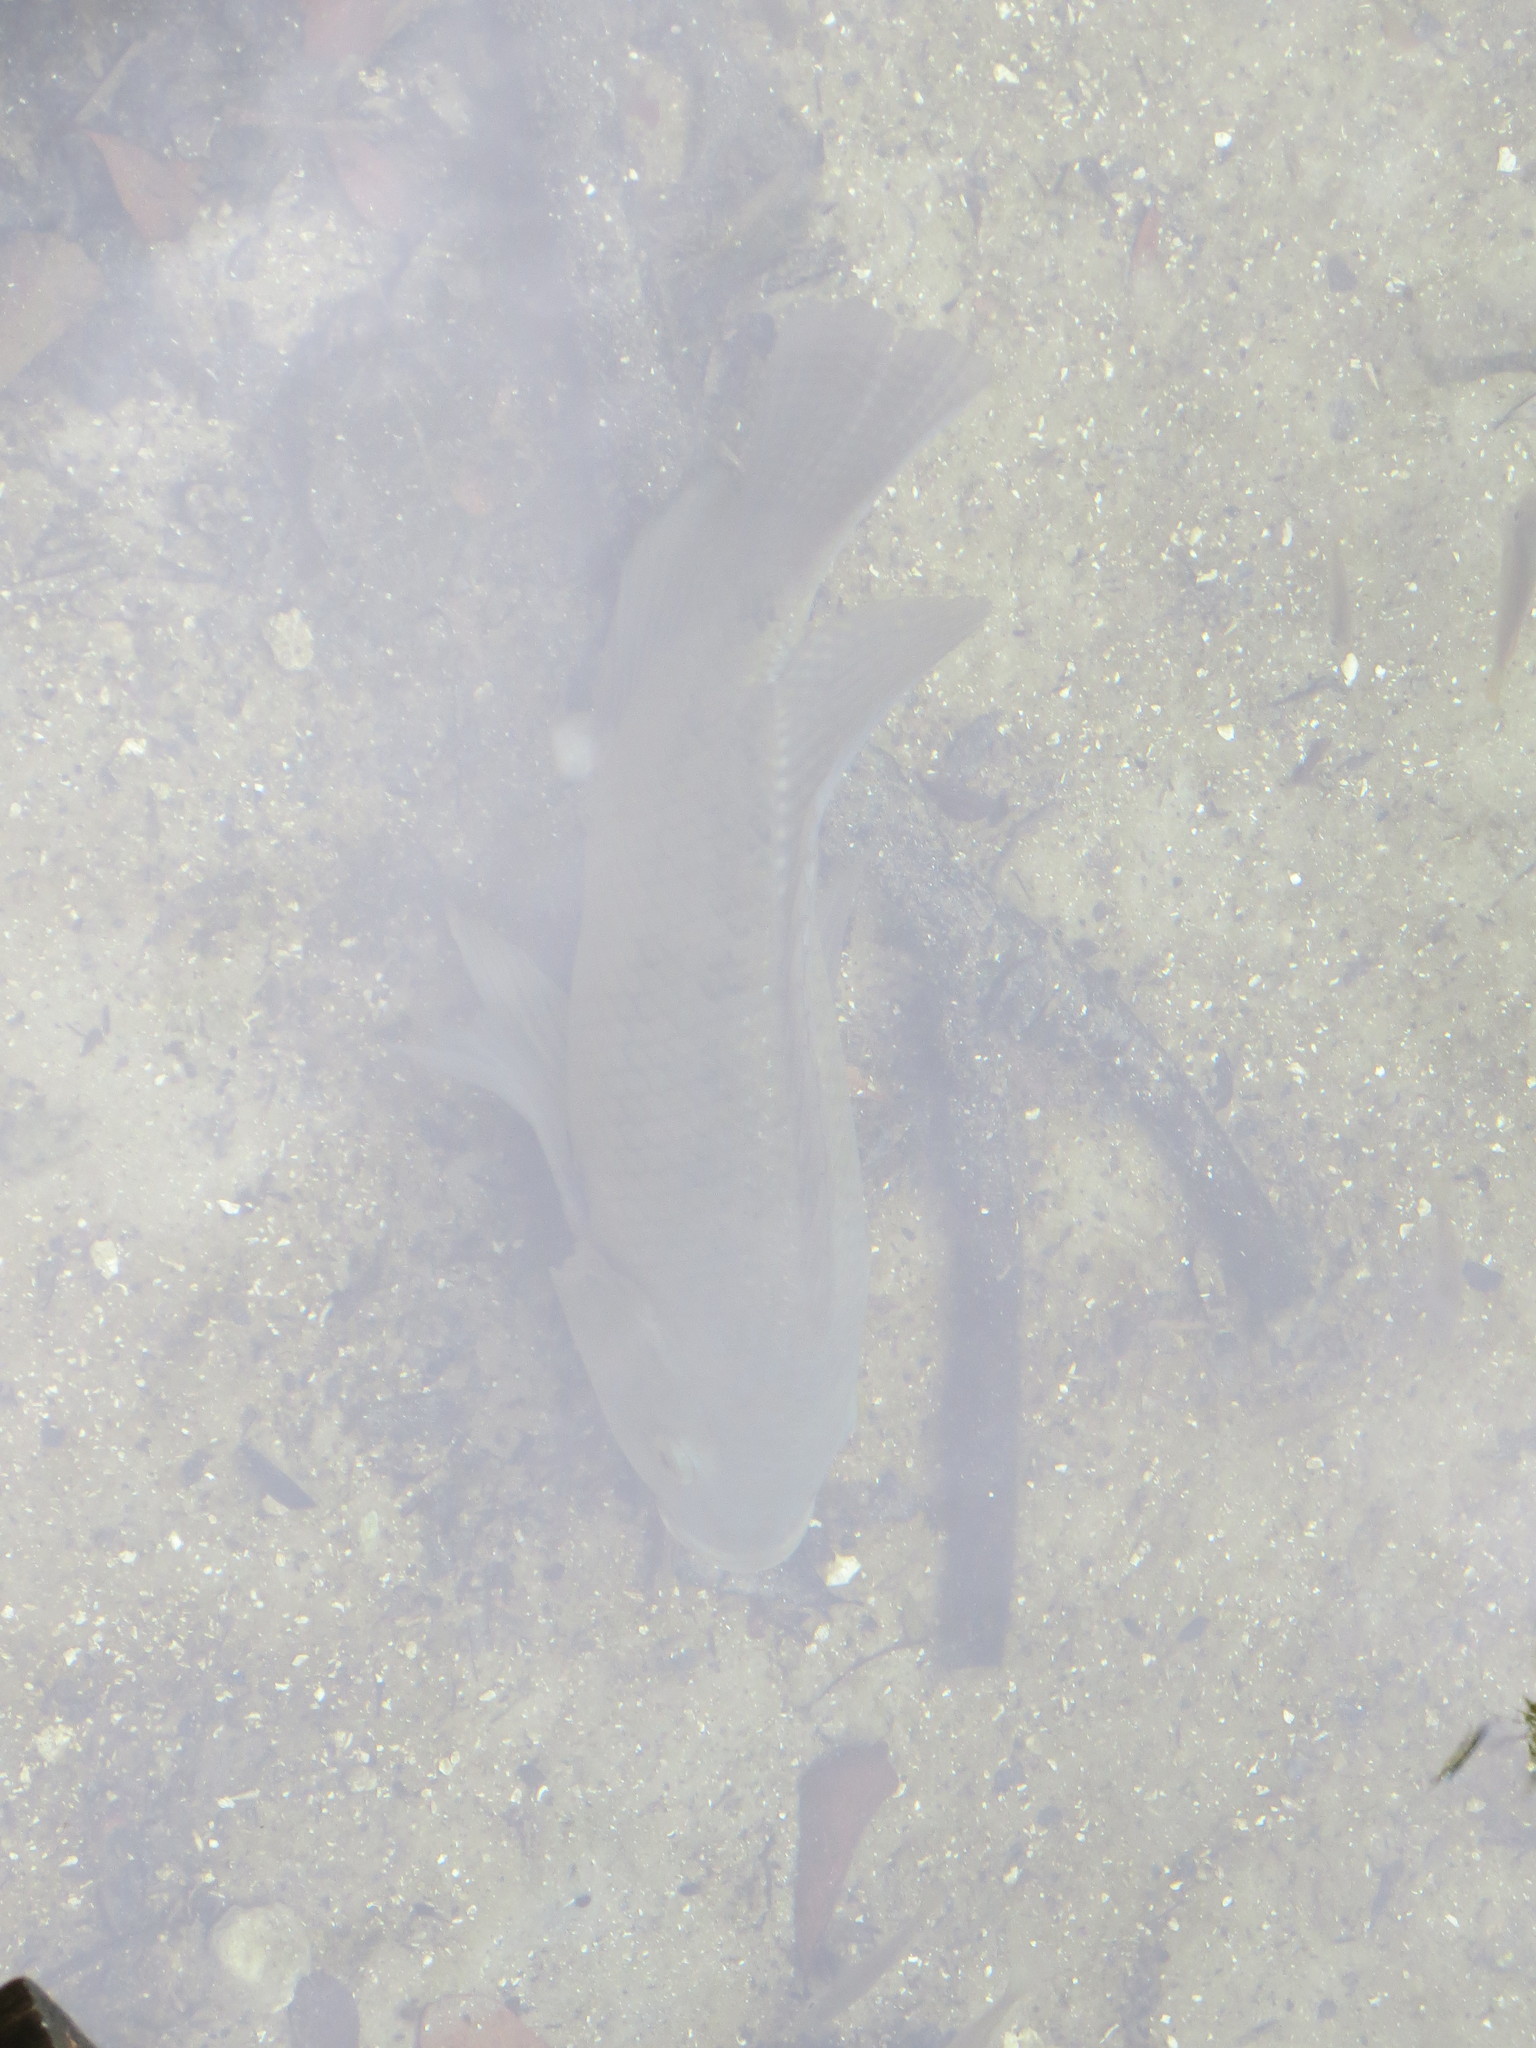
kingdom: Animalia
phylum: Chordata
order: Perciformes
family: Cichlidae
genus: Oreochromis
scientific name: Oreochromis aureus
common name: Blue tilapia
